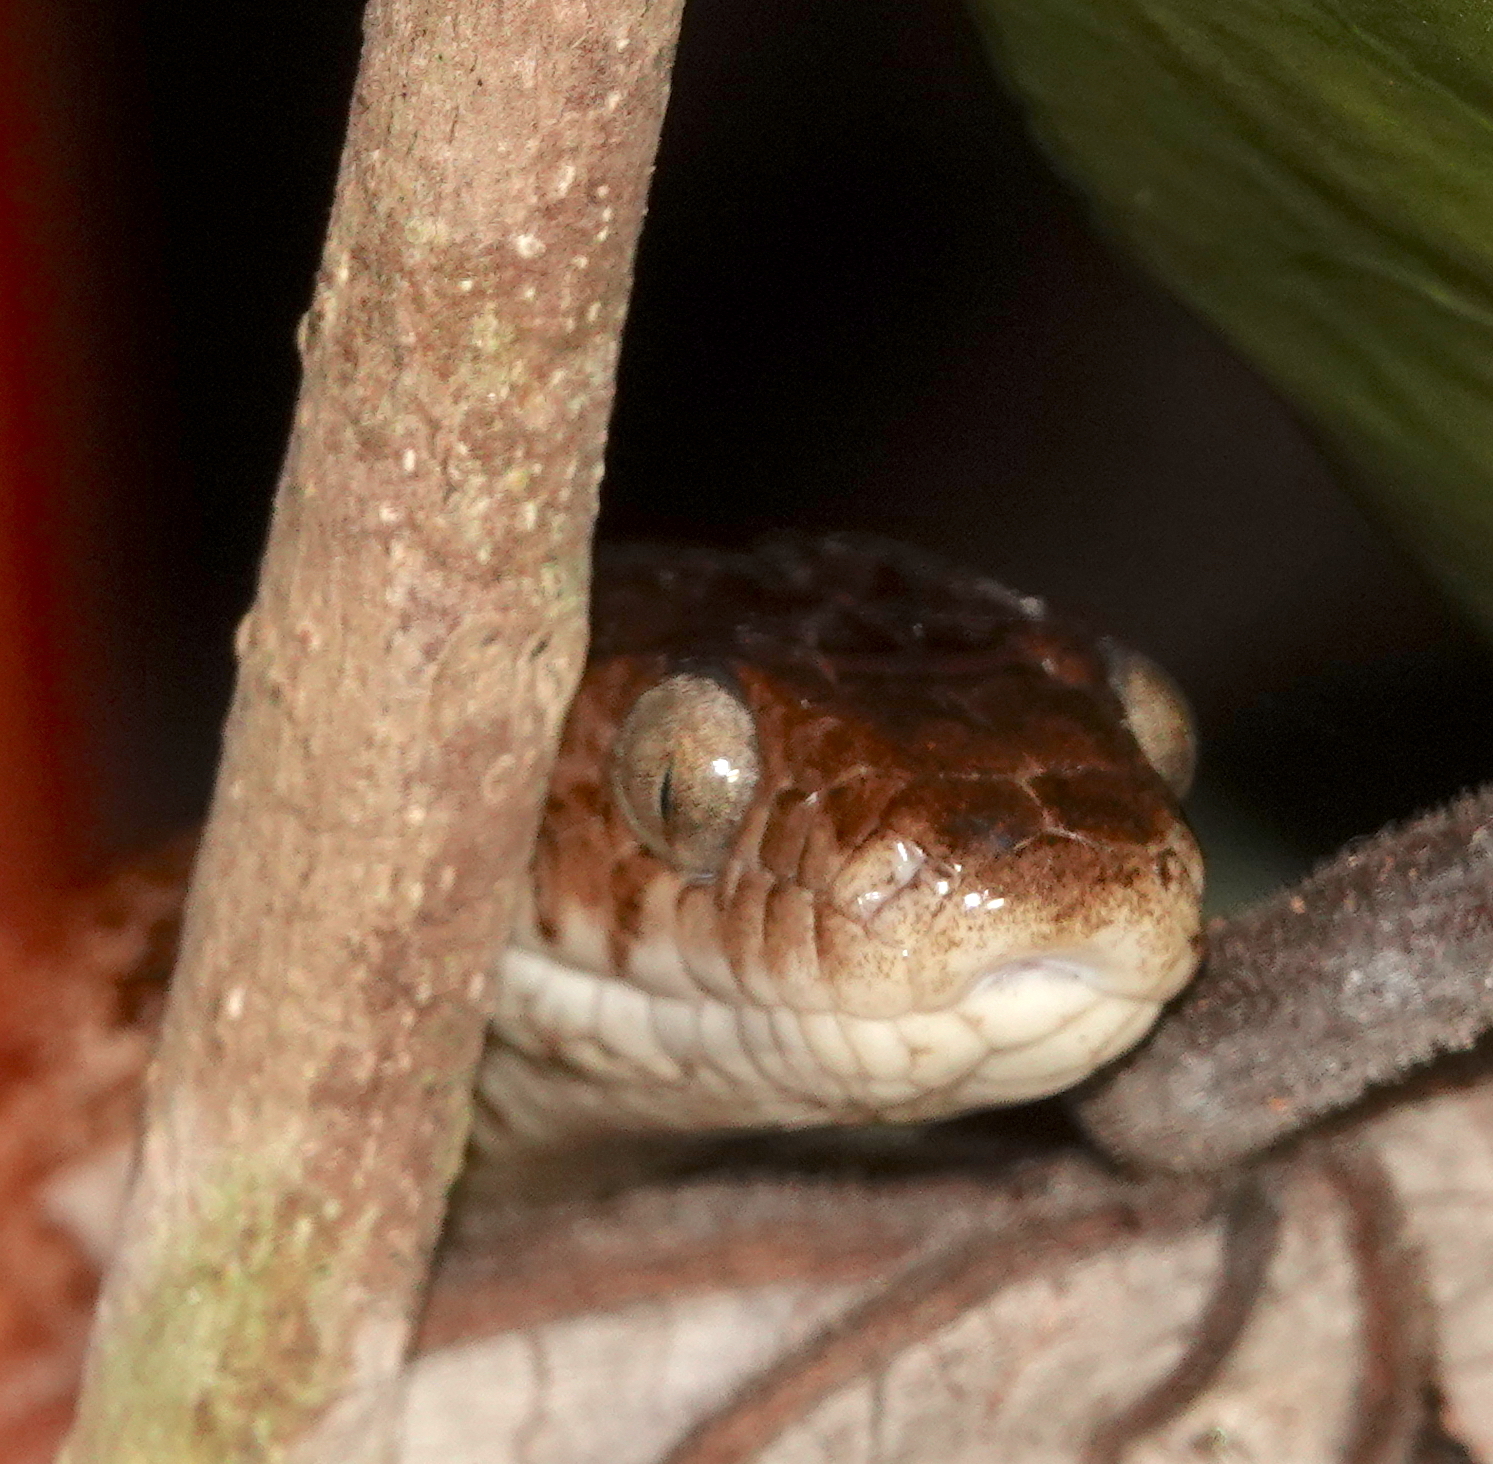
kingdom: Animalia
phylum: Chordata
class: Squamata
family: Colubridae
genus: Trimorphodon
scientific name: Trimorphodon quadruplex
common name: Central american lyre snake
